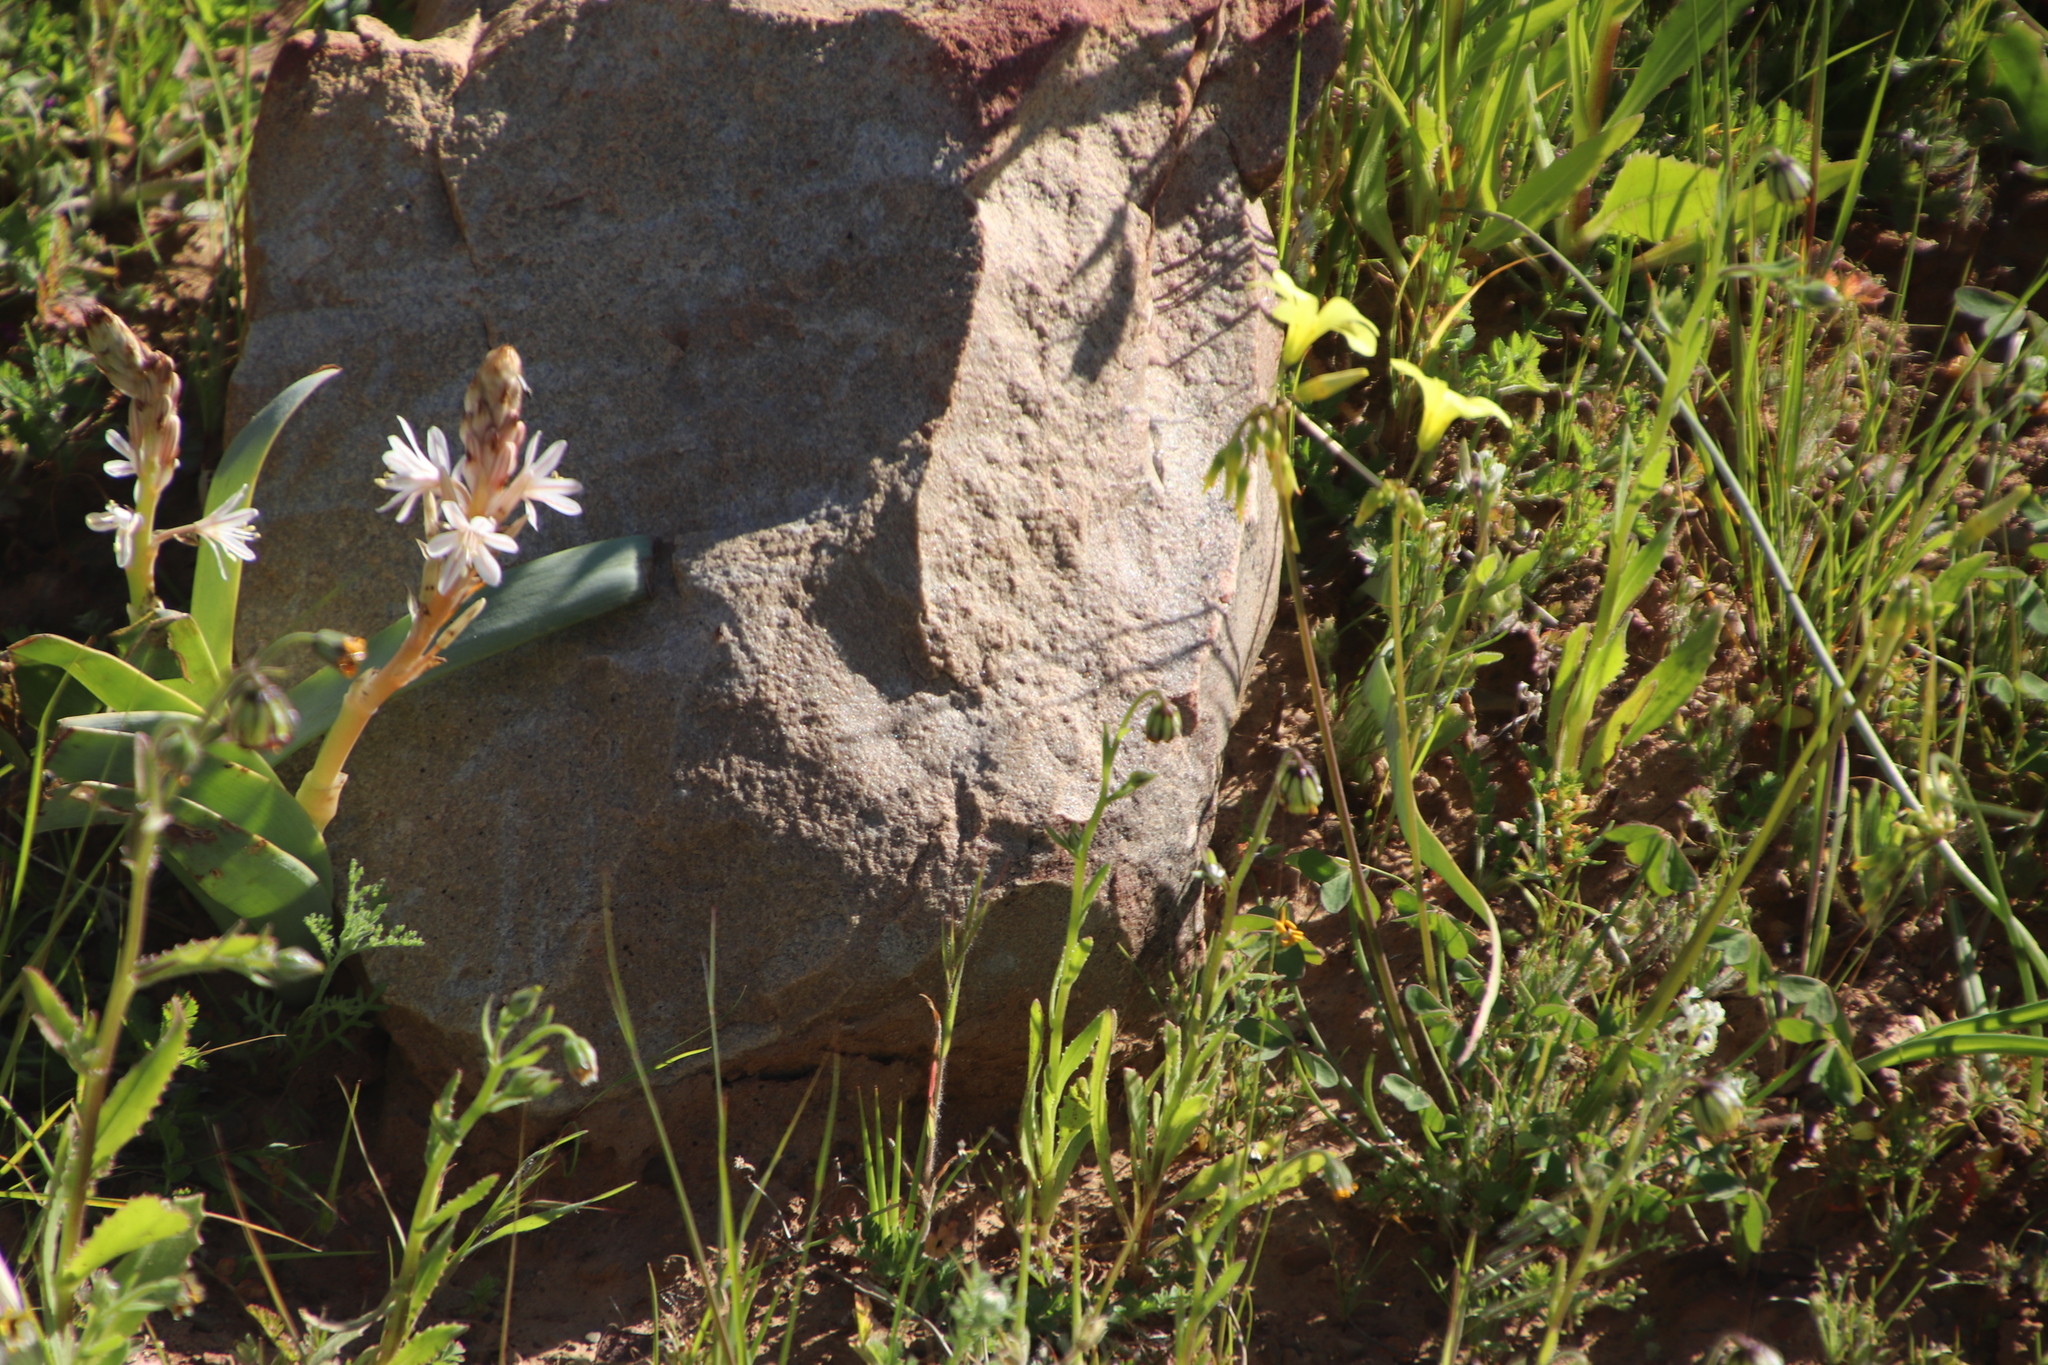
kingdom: Plantae
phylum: Tracheophyta
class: Magnoliopsida
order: Oxalidales
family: Oxalidaceae
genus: Oxalis
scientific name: Oxalis pes-caprae
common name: Bermuda-buttercup
